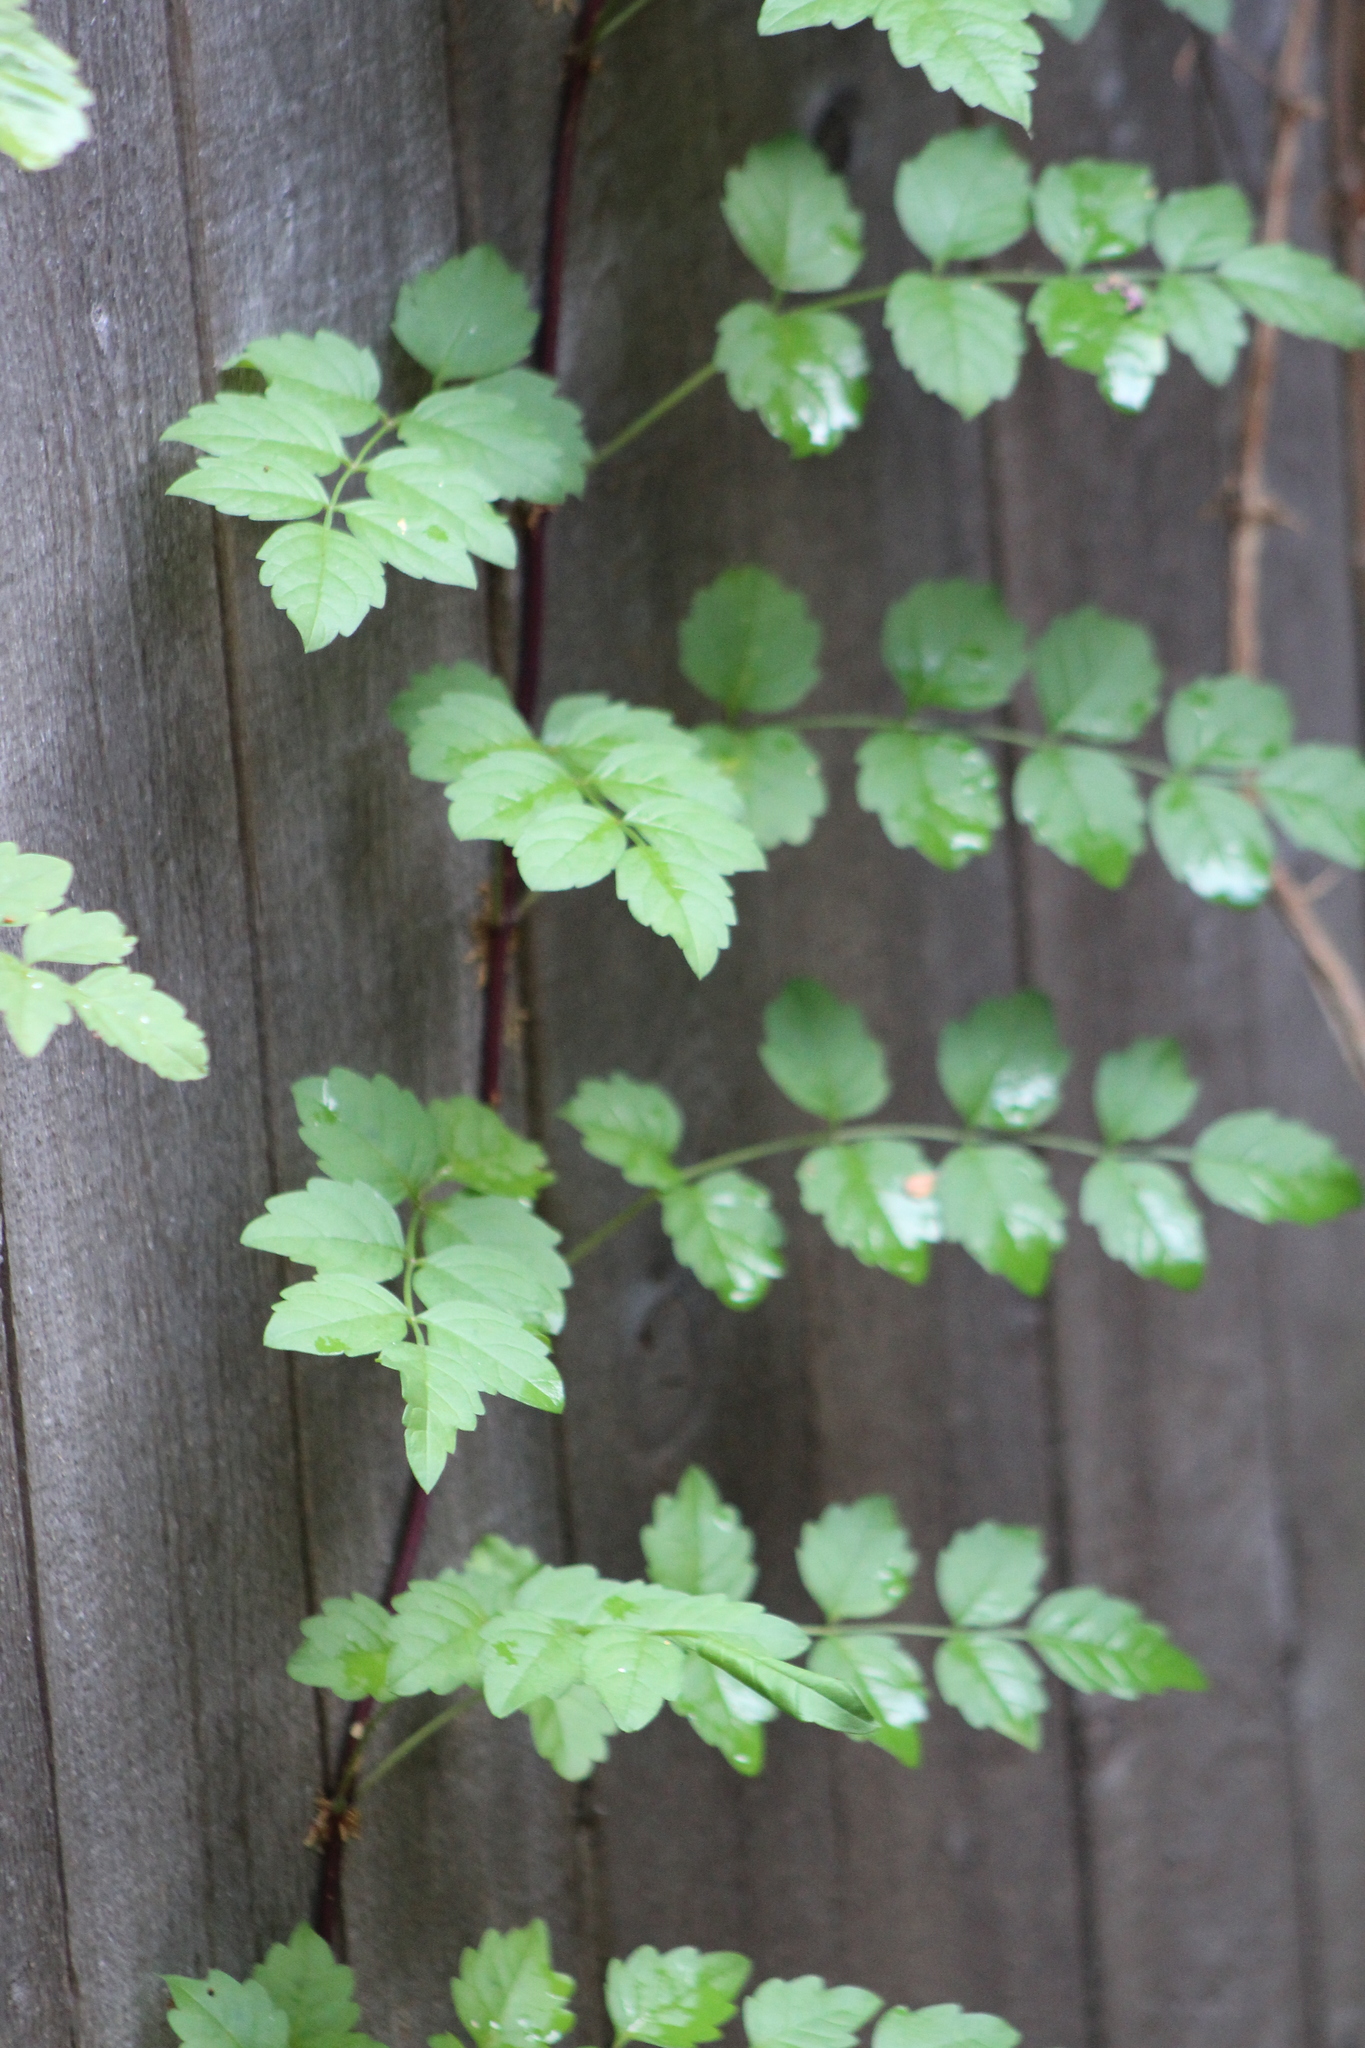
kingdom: Plantae
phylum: Tracheophyta
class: Magnoliopsida
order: Lamiales
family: Bignoniaceae
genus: Campsis
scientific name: Campsis radicans
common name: Trumpet-creeper
